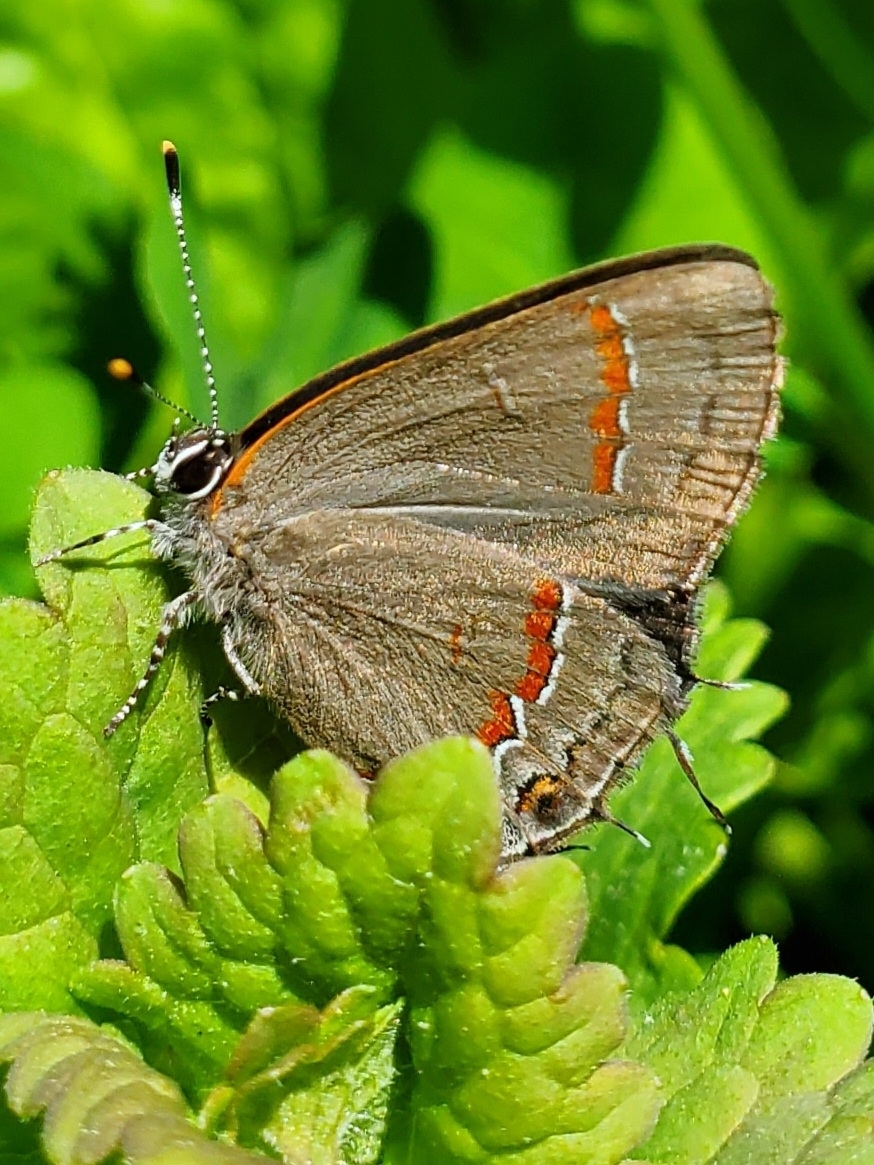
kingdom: Animalia
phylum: Arthropoda
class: Insecta
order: Lepidoptera
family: Lycaenidae
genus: Calycopis
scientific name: Calycopis cecrops
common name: Red-banded hairstreak
